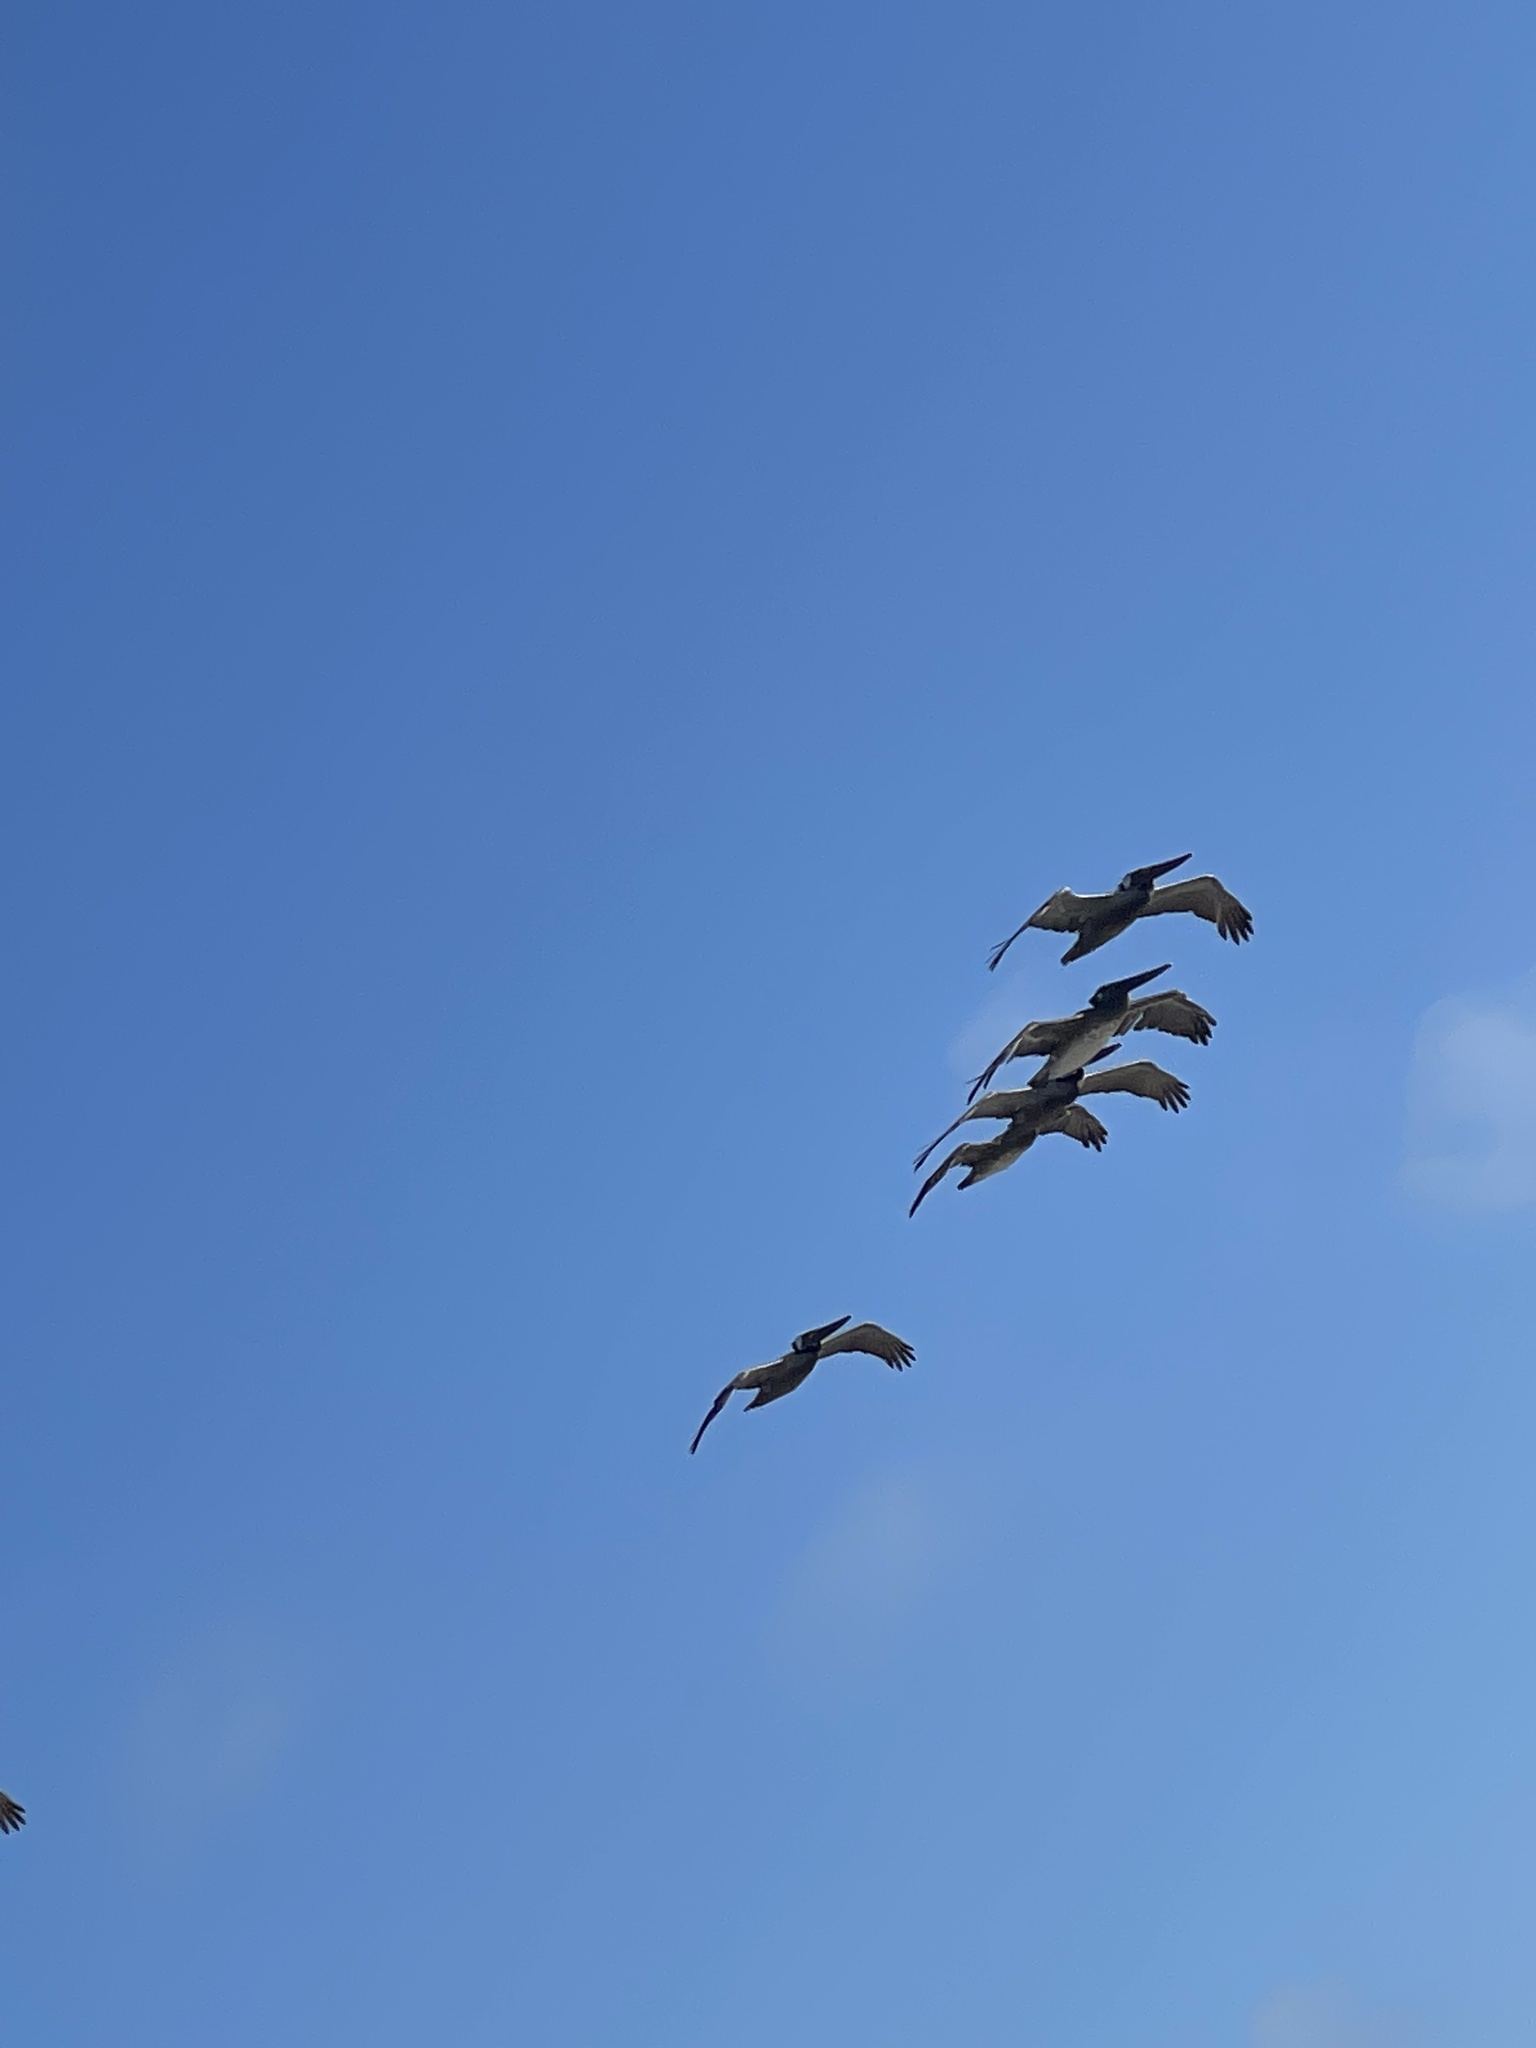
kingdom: Animalia
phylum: Chordata
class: Aves
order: Pelecaniformes
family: Pelecanidae
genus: Pelecanus
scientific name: Pelecanus occidentalis
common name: Brown pelican
